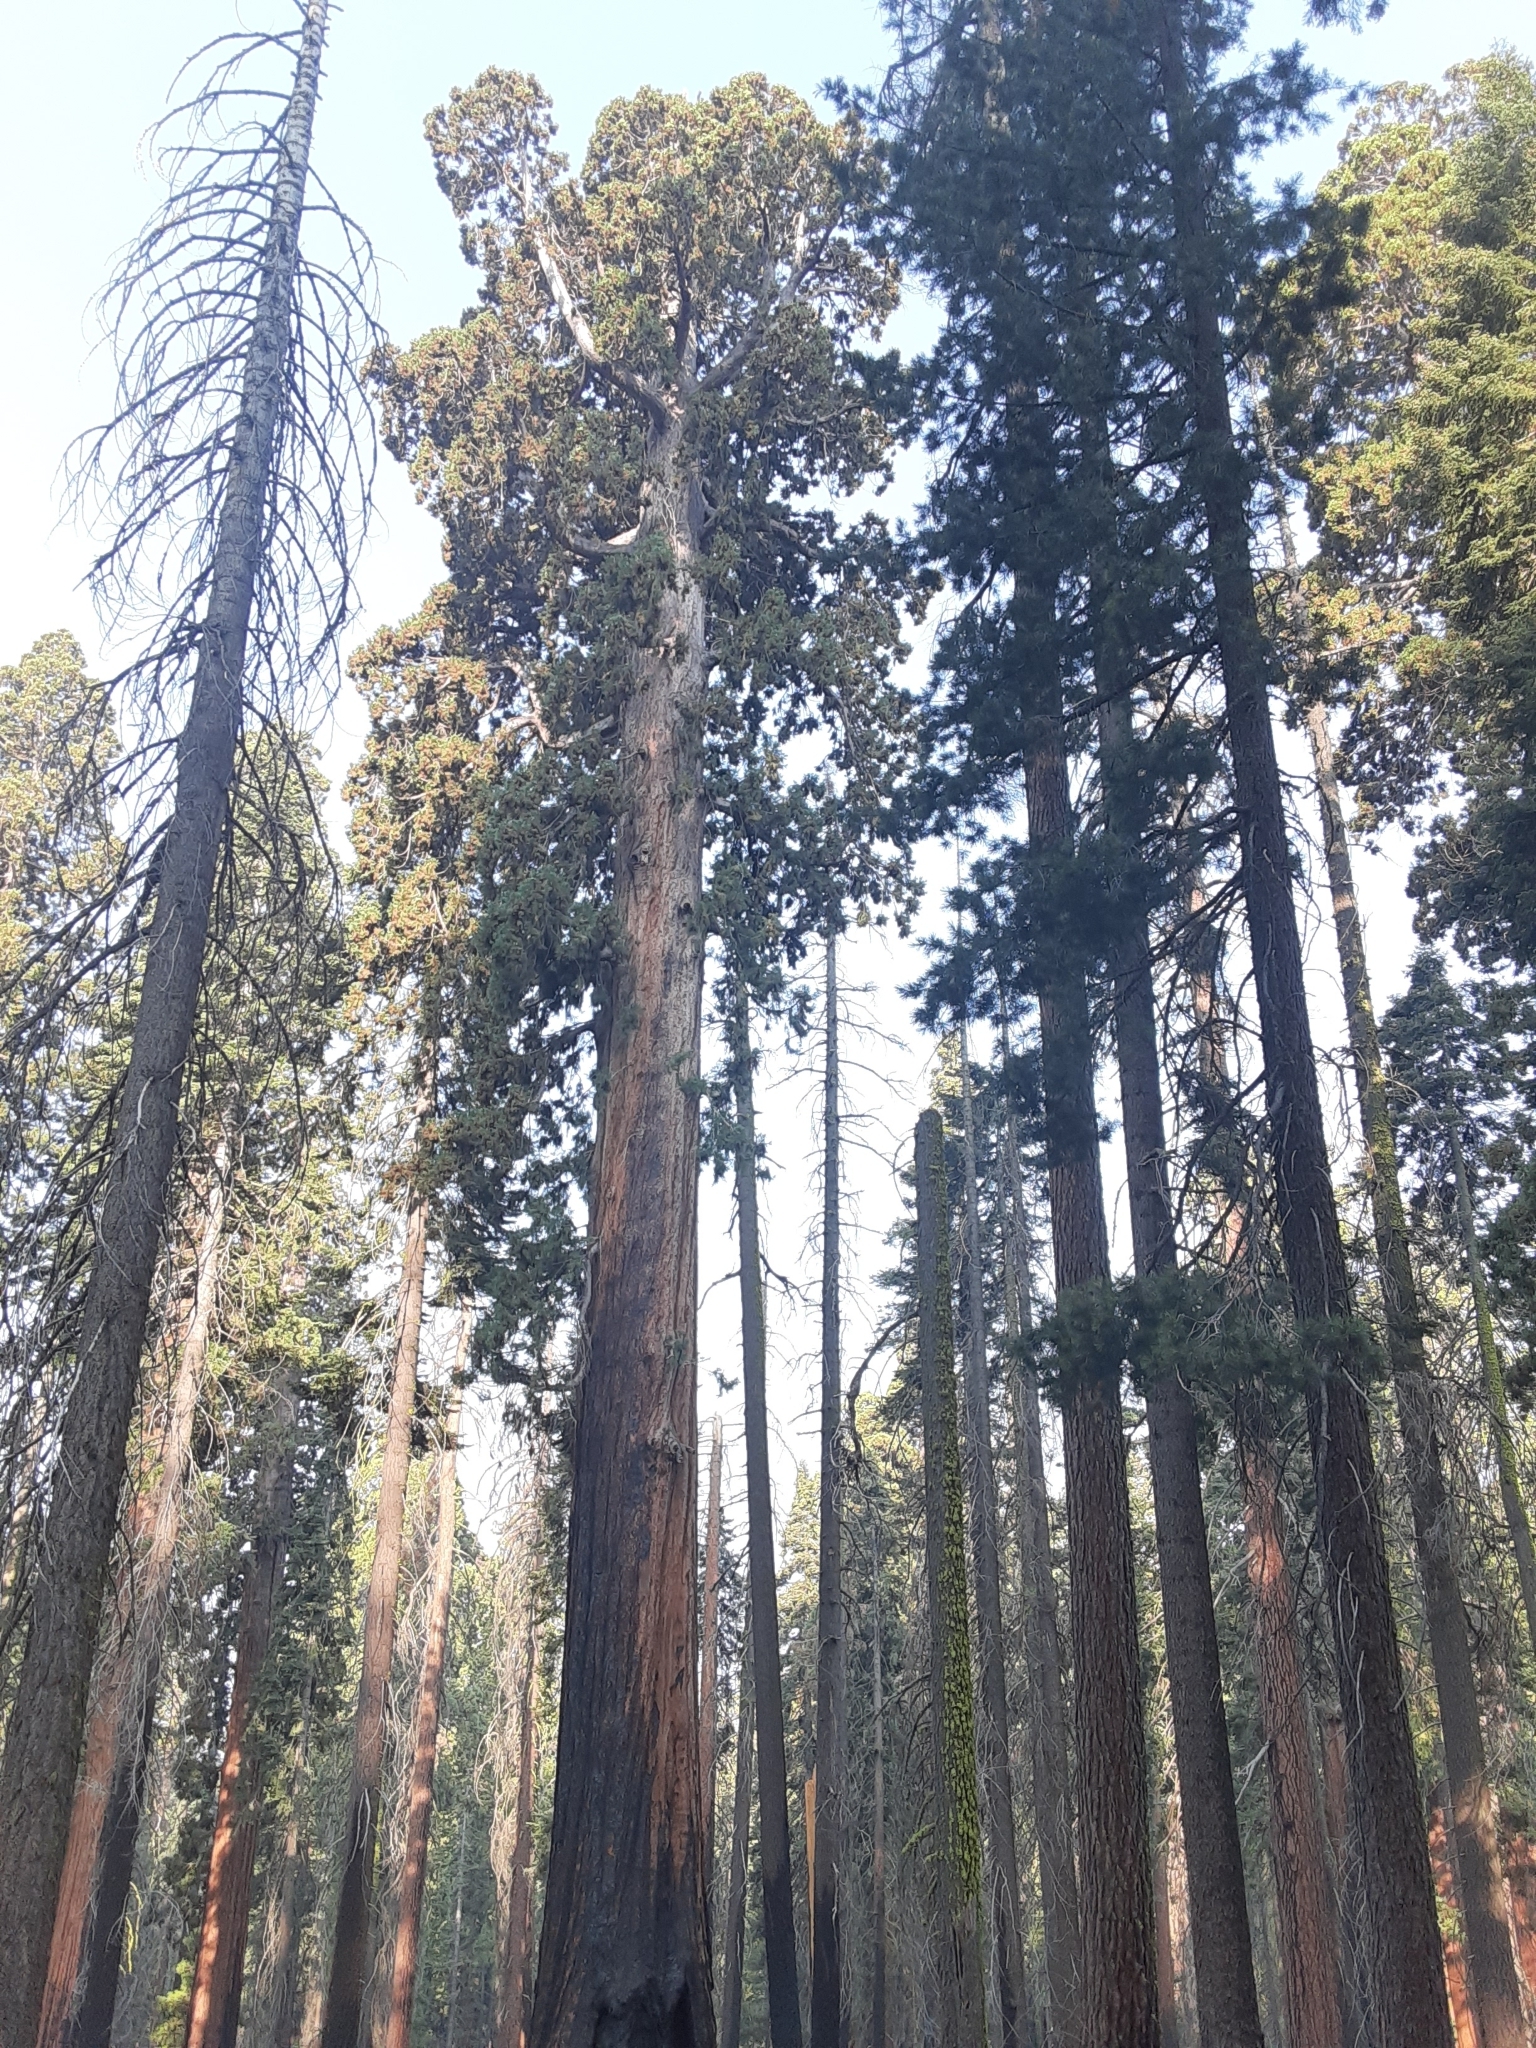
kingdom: Plantae
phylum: Tracheophyta
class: Pinopsida
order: Pinales
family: Cupressaceae
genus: Sequoiadendron
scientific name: Sequoiadendron giganteum
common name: Wellingtonia
